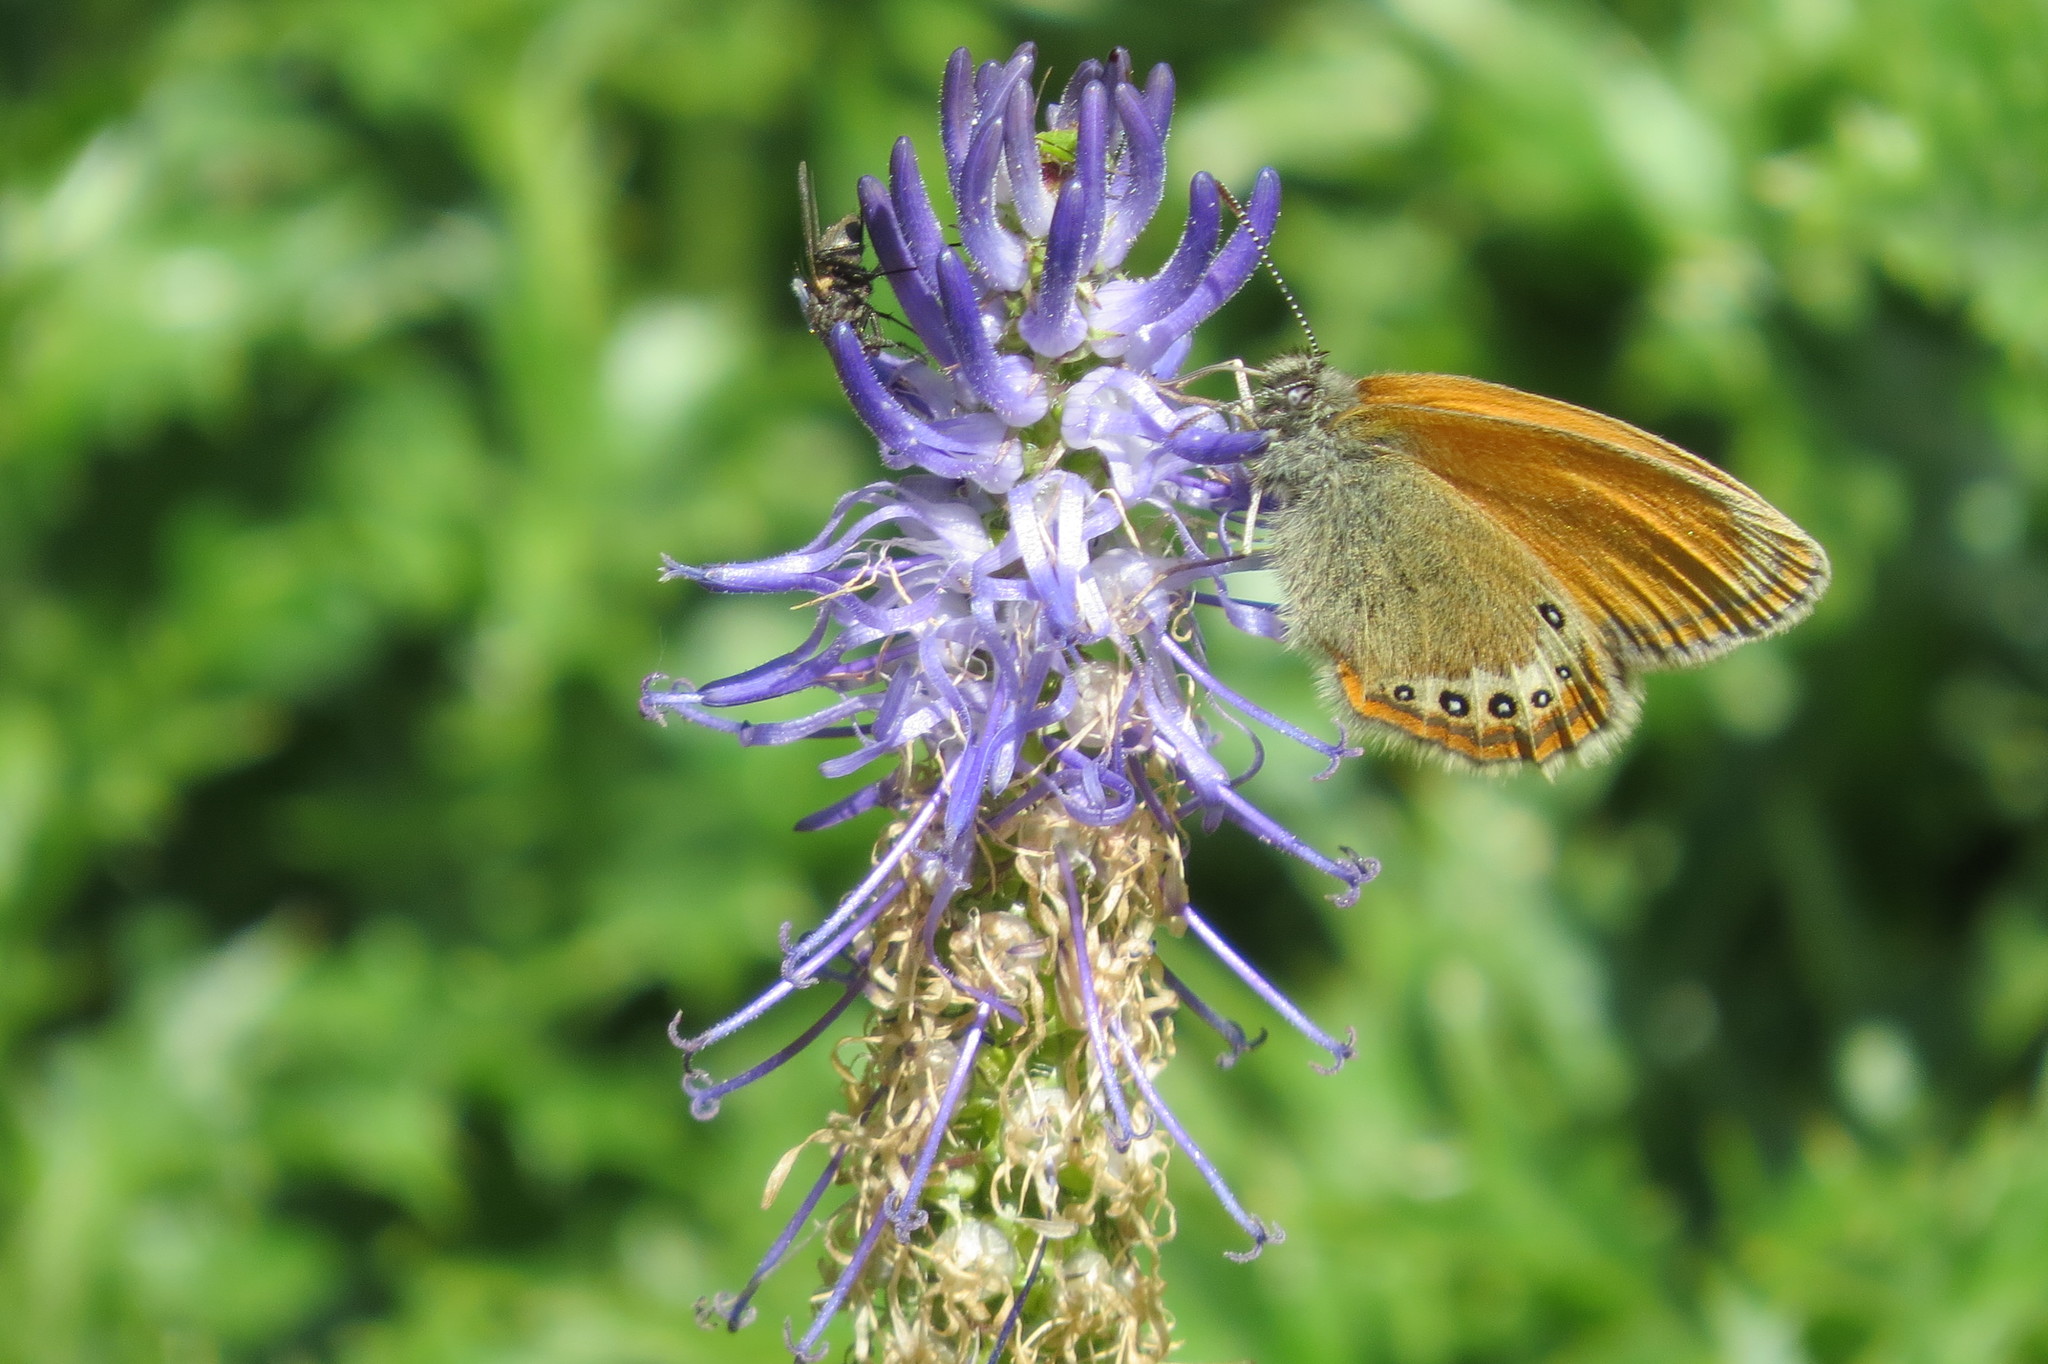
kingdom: Animalia
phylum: Arthropoda
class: Insecta
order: Lepidoptera
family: Nymphalidae
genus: Coenonympha
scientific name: Coenonympha
